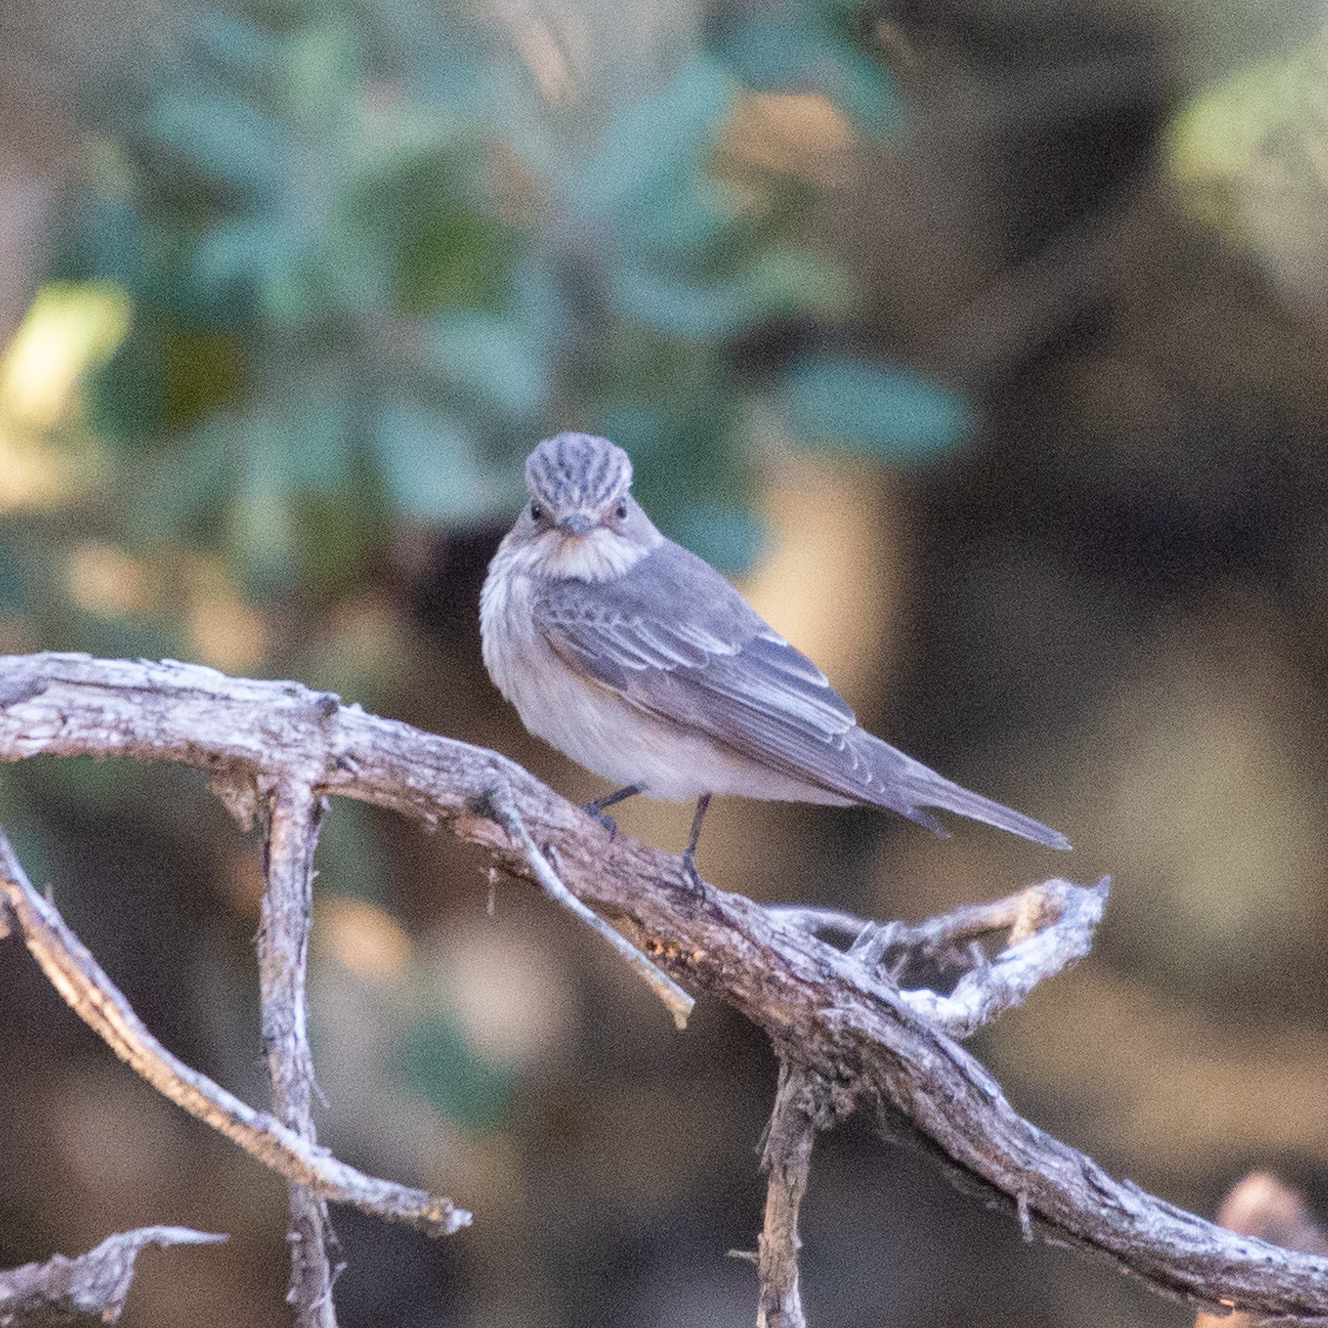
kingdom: Animalia
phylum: Chordata
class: Aves
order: Passeriformes
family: Muscicapidae
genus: Muscicapa
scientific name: Muscicapa striata
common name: Spotted flycatcher
